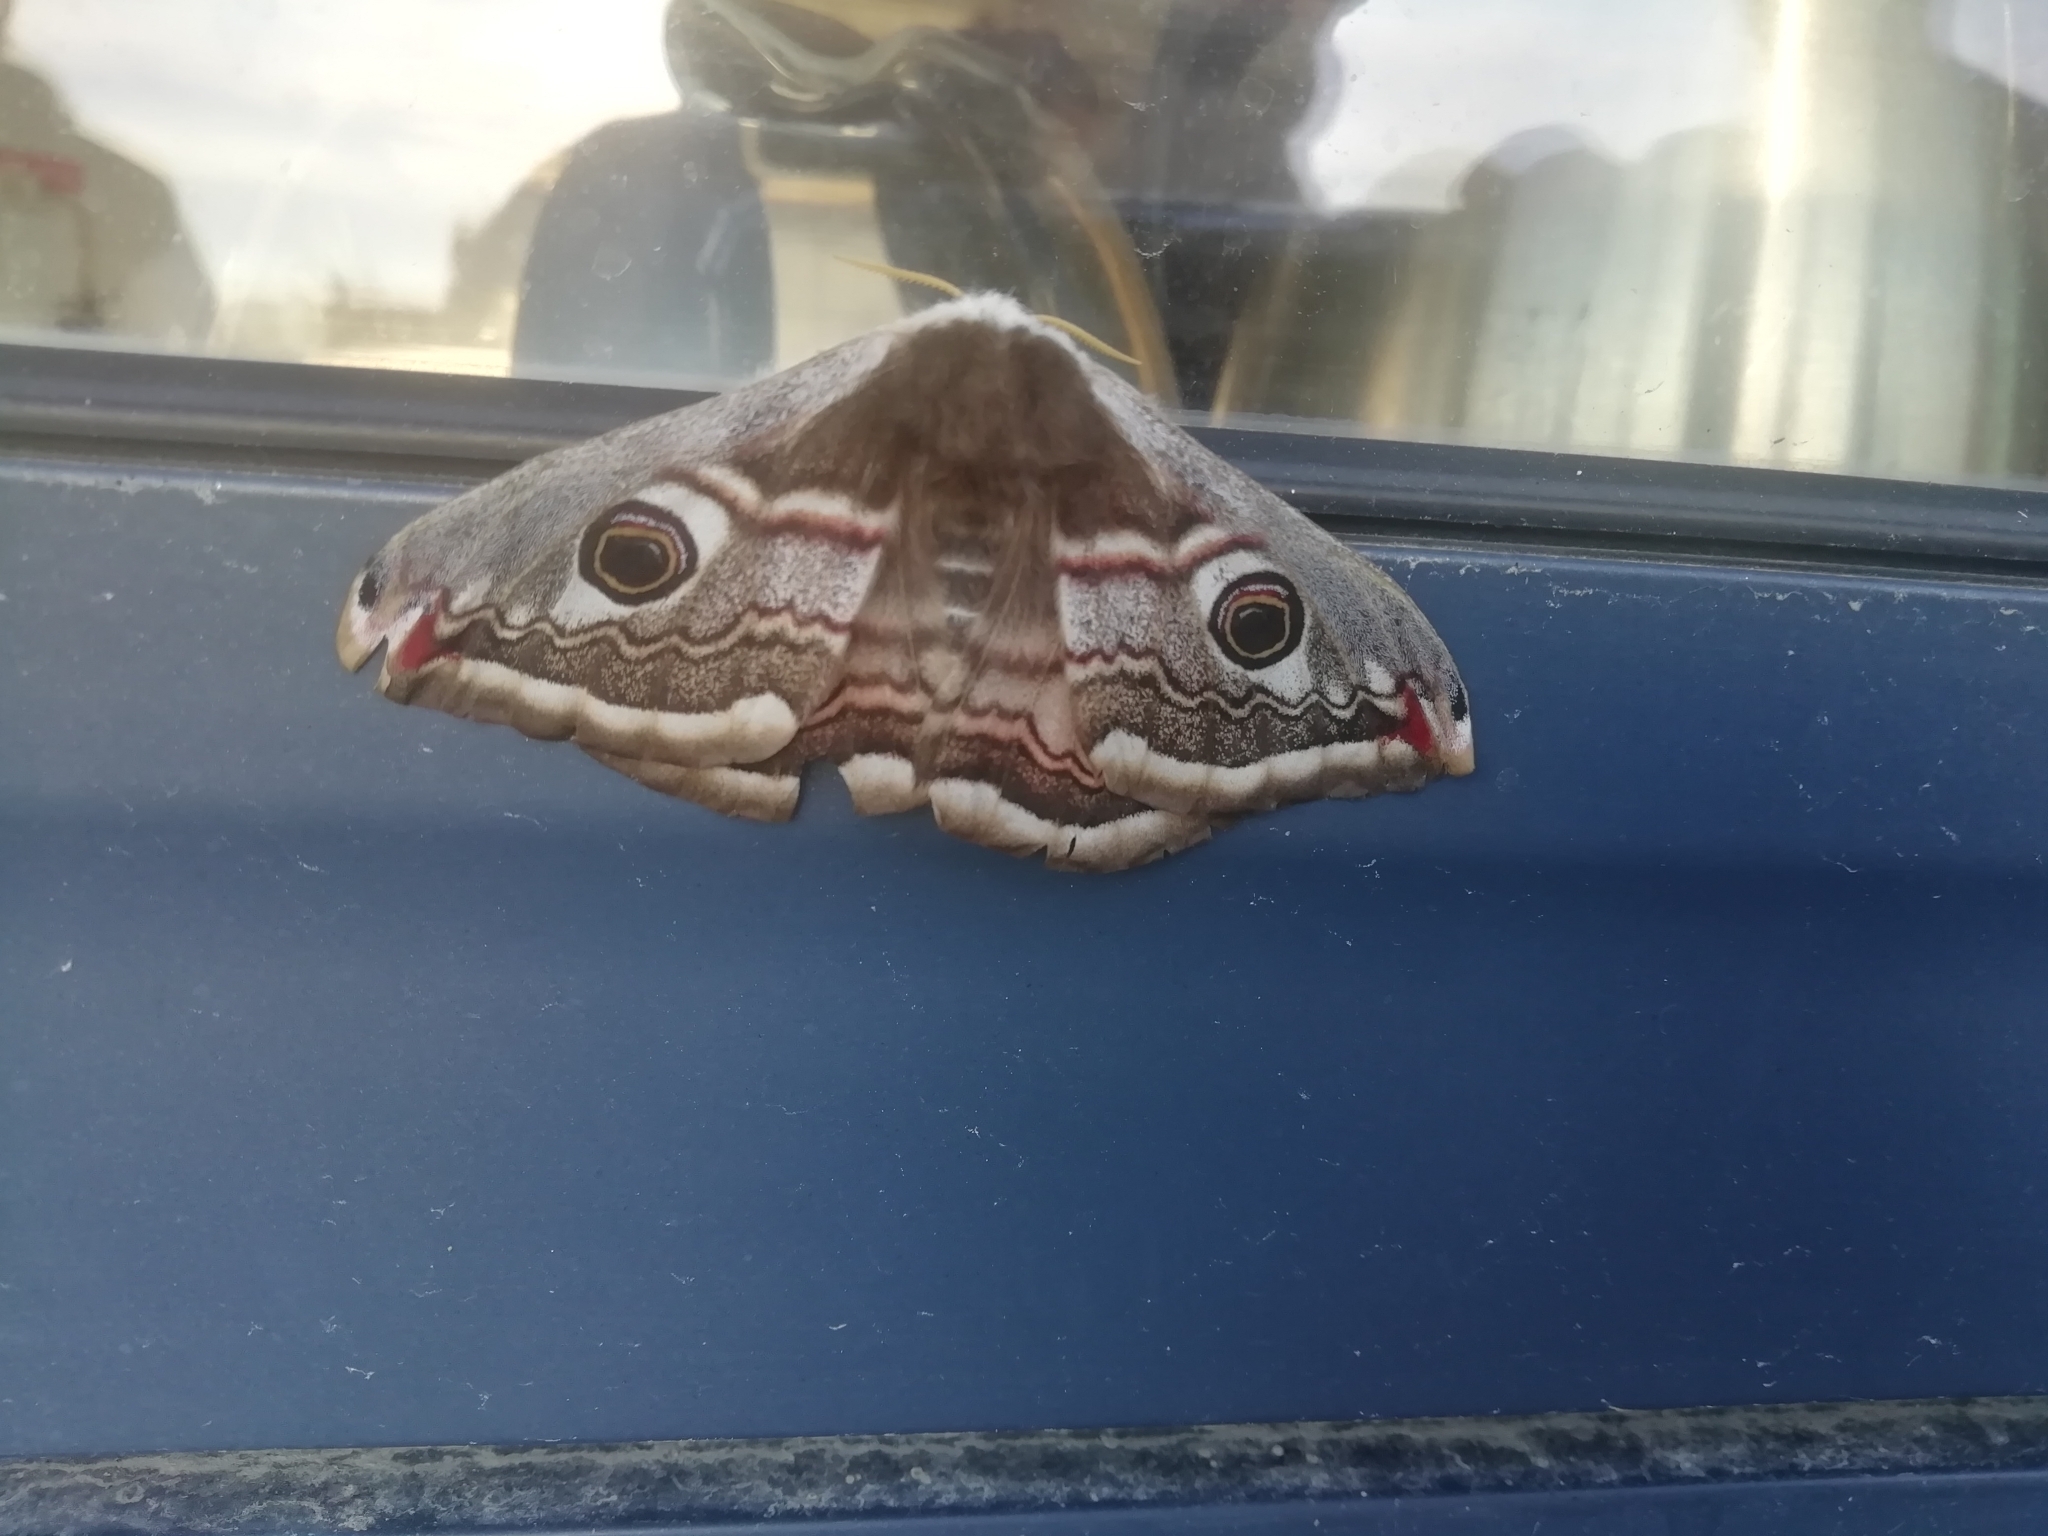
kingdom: Animalia
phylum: Arthropoda
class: Insecta
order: Lepidoptera
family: Saturniidae
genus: Saturnia
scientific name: Saturnia pavonia
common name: Emperor moth
